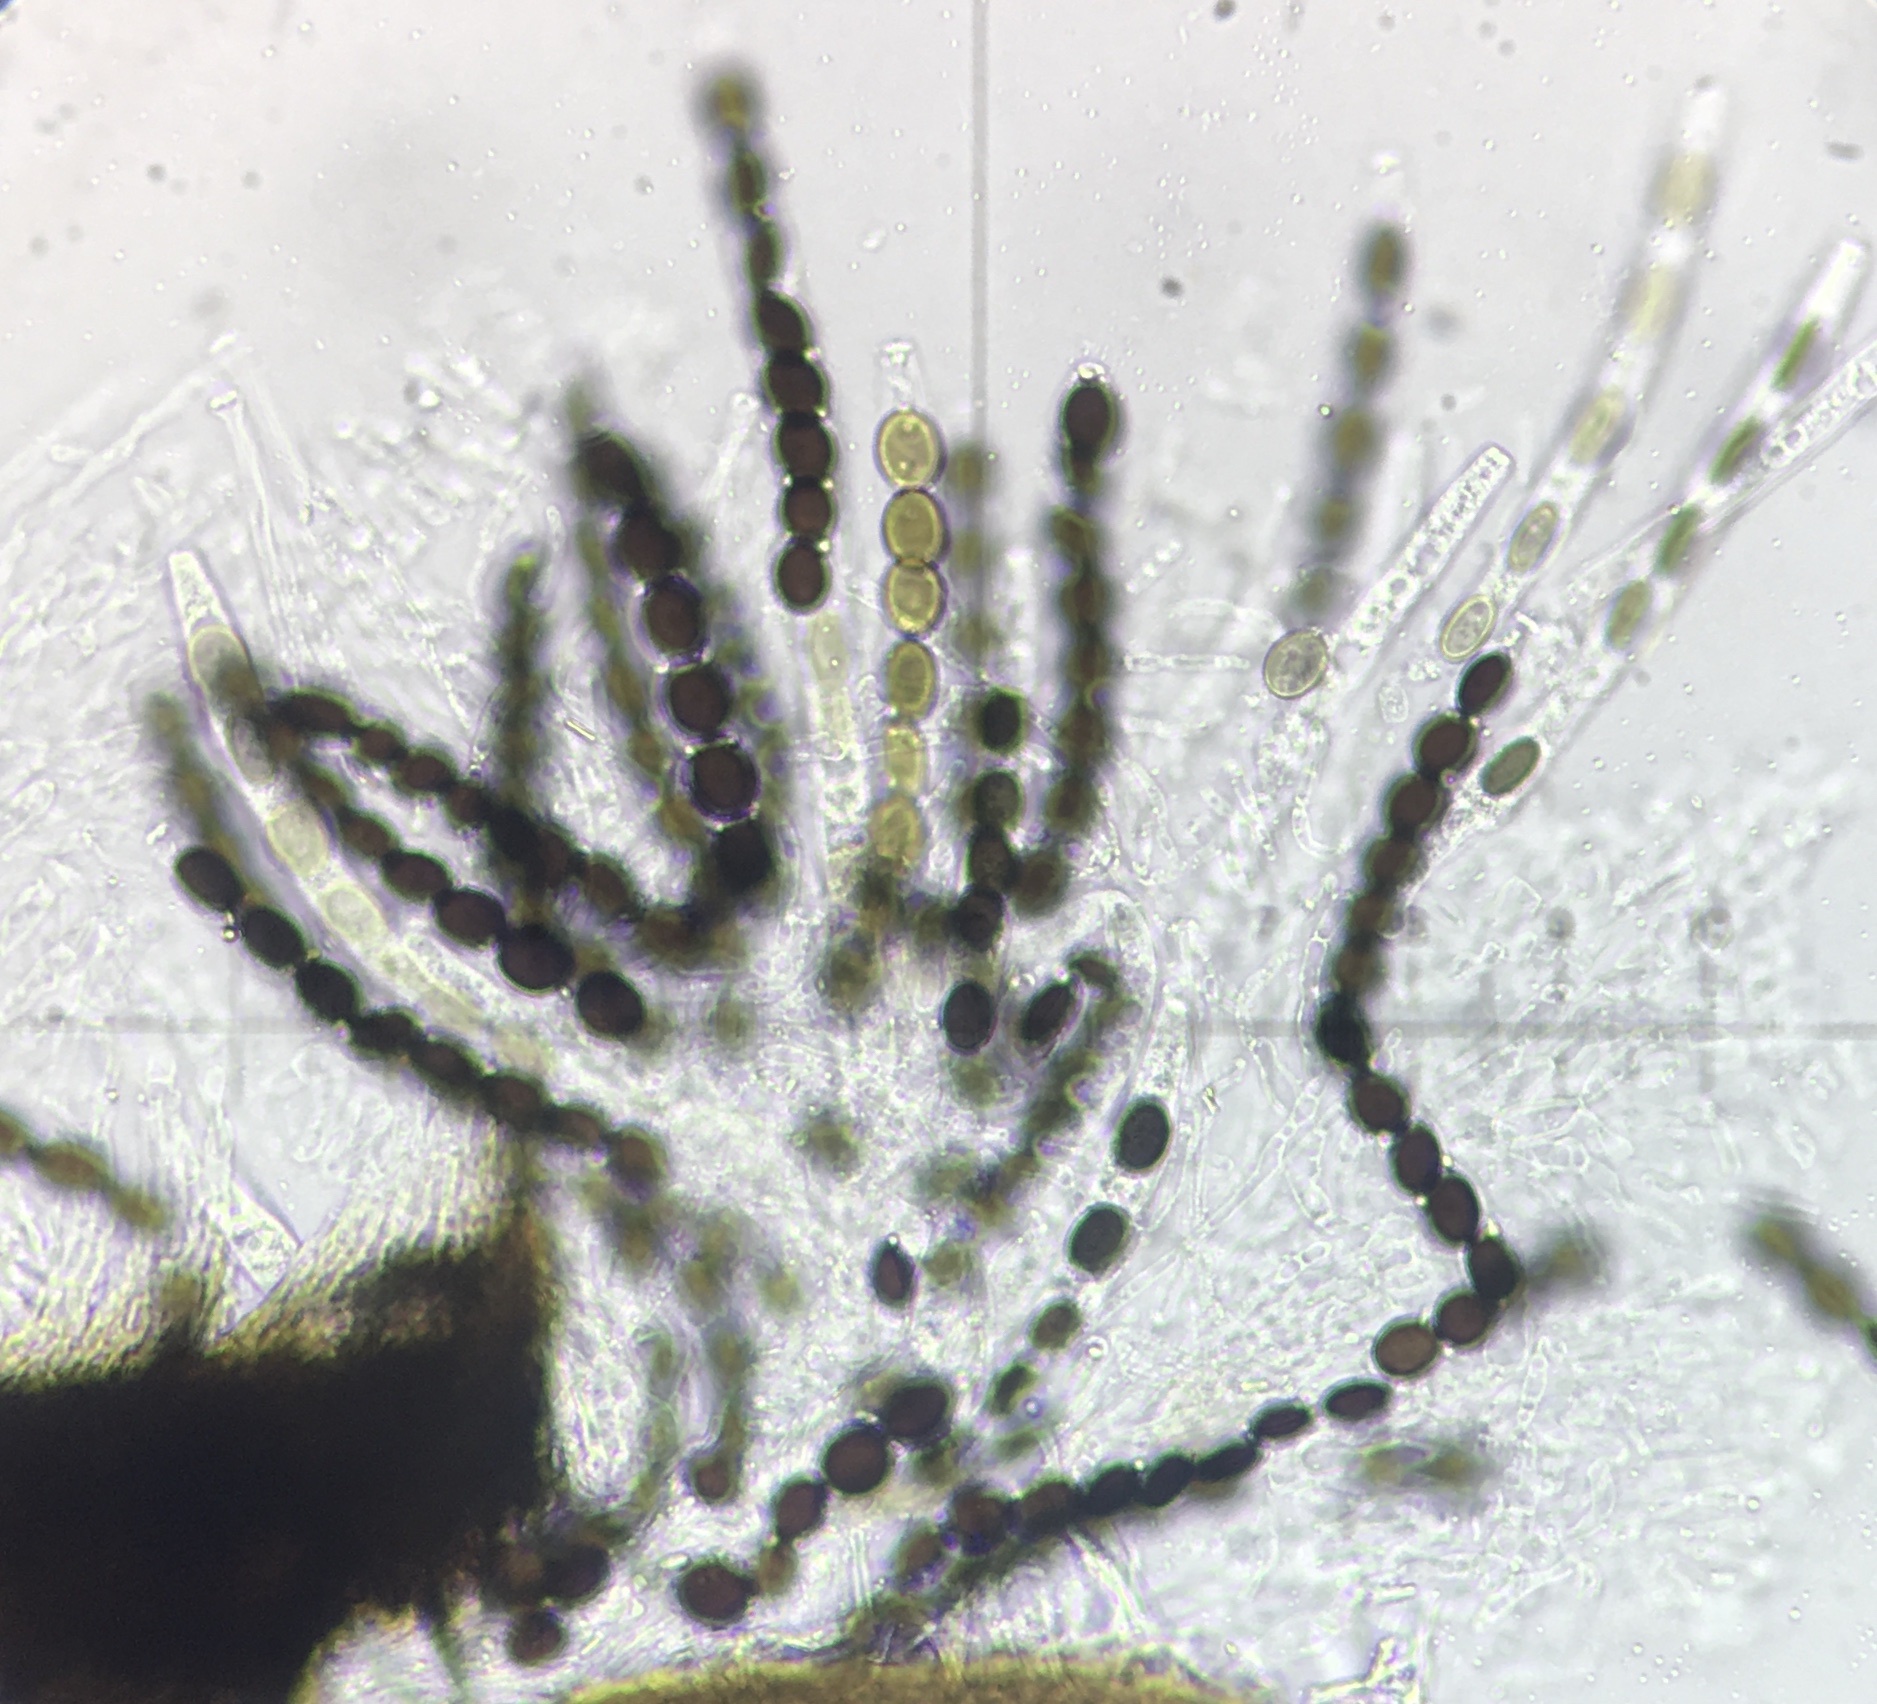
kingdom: Fungi
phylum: Ascomycota
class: Sordariomycetes
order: Coniochaetales
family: Coniochaetaceae
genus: Coniochaeta
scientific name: Coniochaeta leucoplaca
